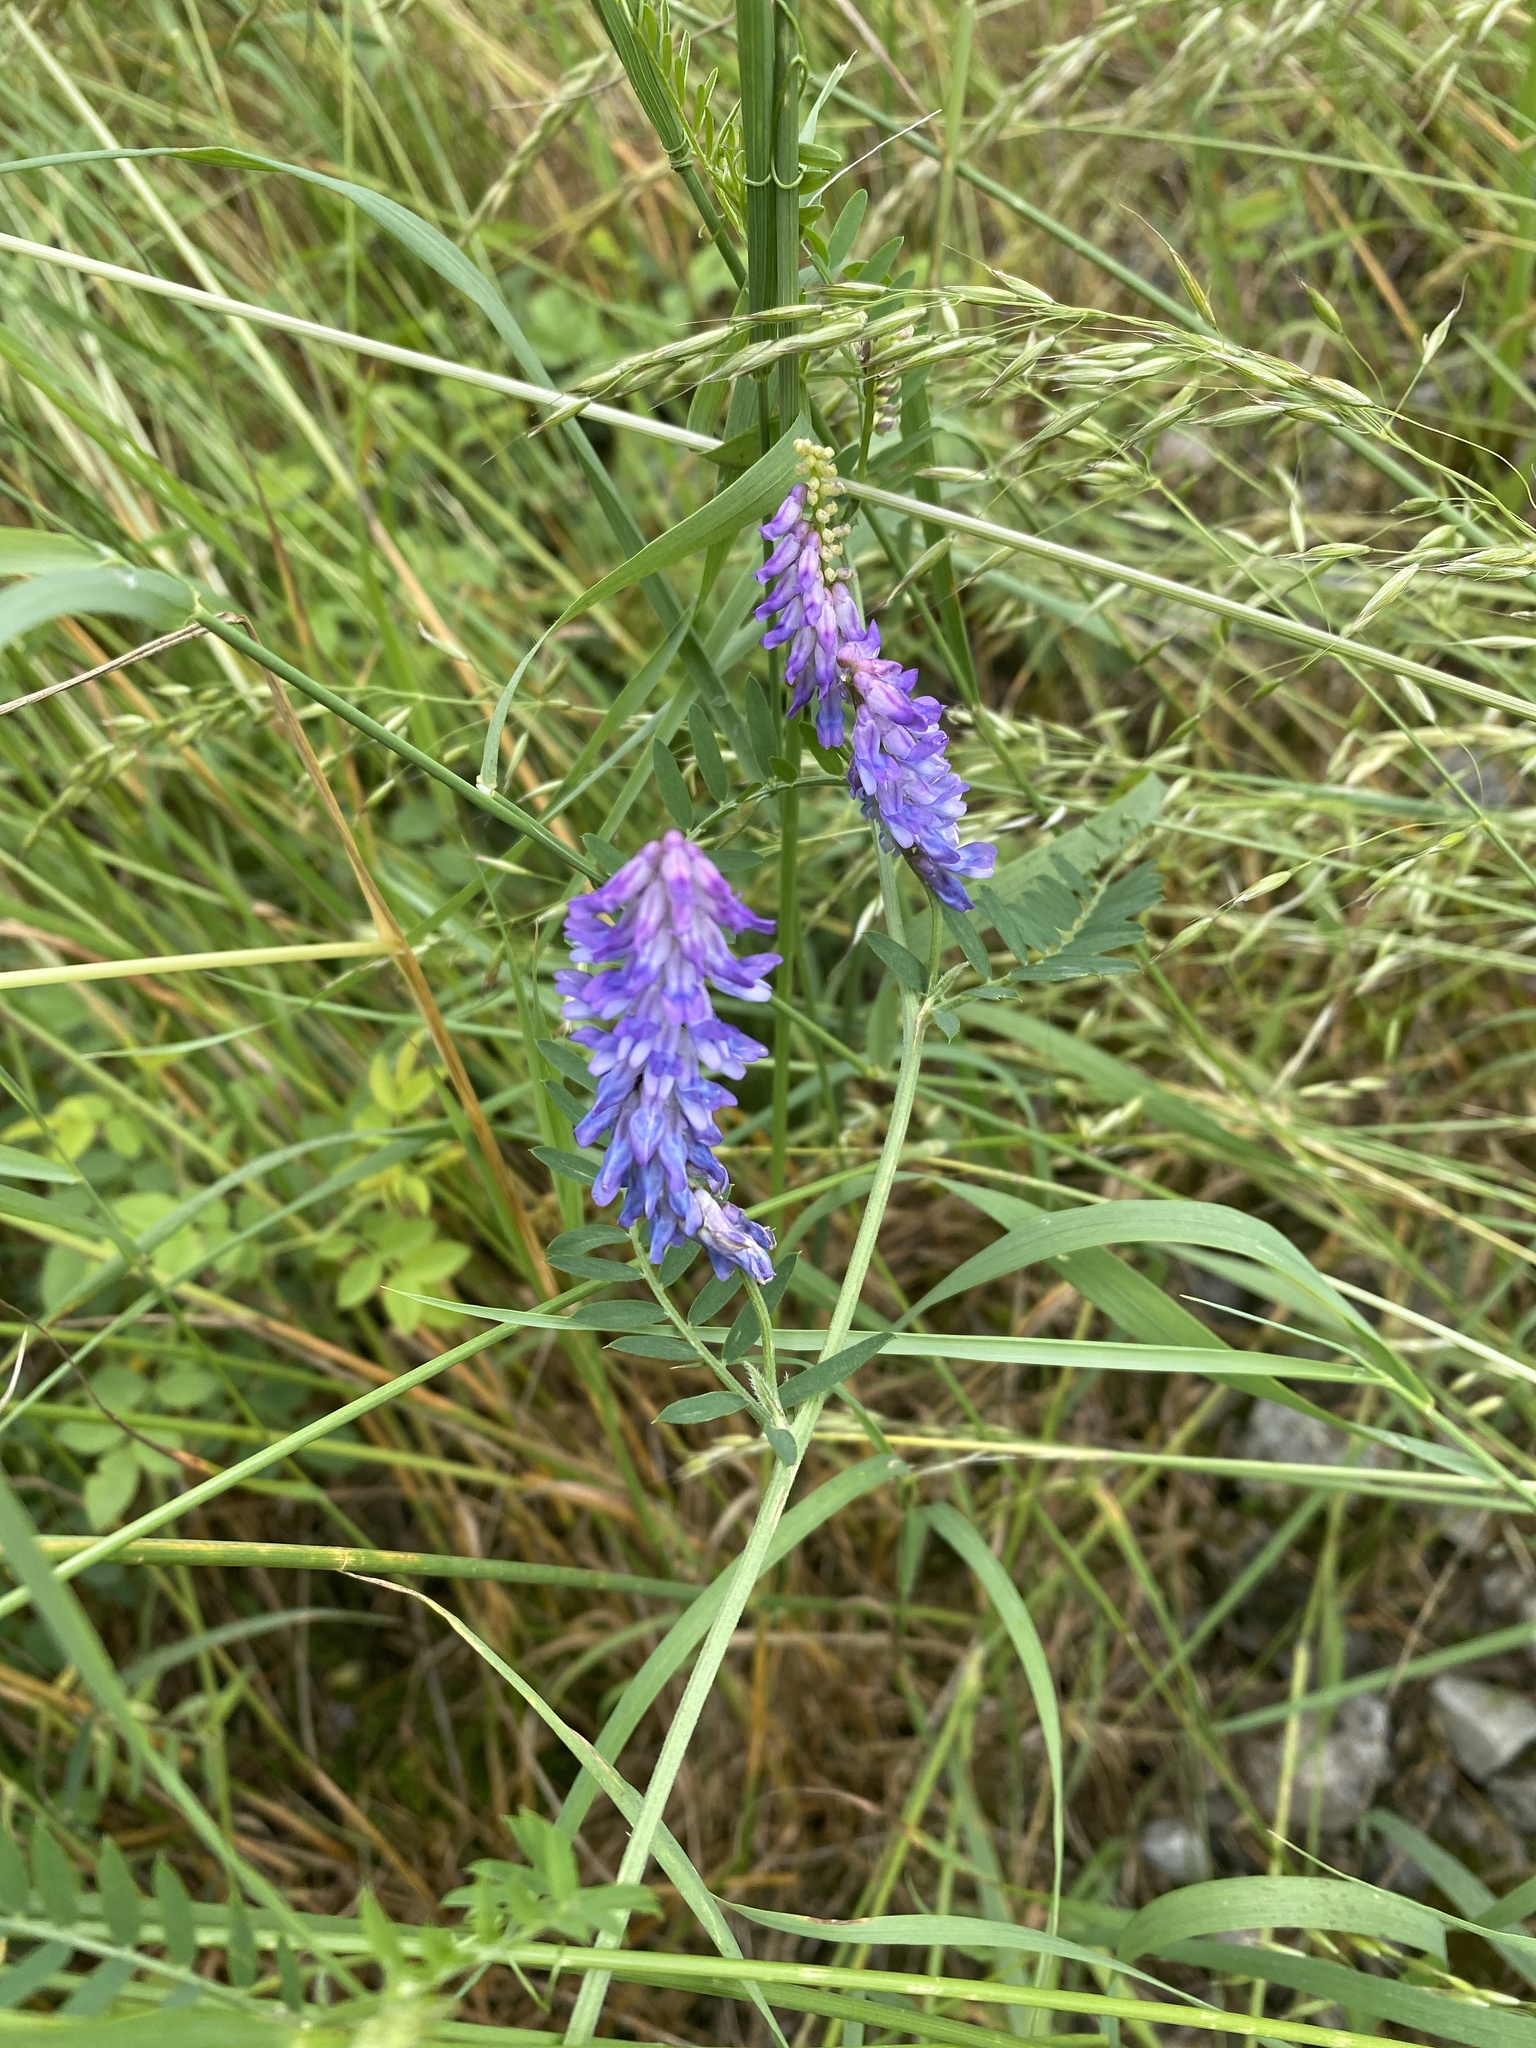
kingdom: Plantae
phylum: Tracheophyta
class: Magnoliopsida
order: Fabales
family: Fabaceae
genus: Vicia
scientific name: Vicia cracca
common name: Bird vetch
